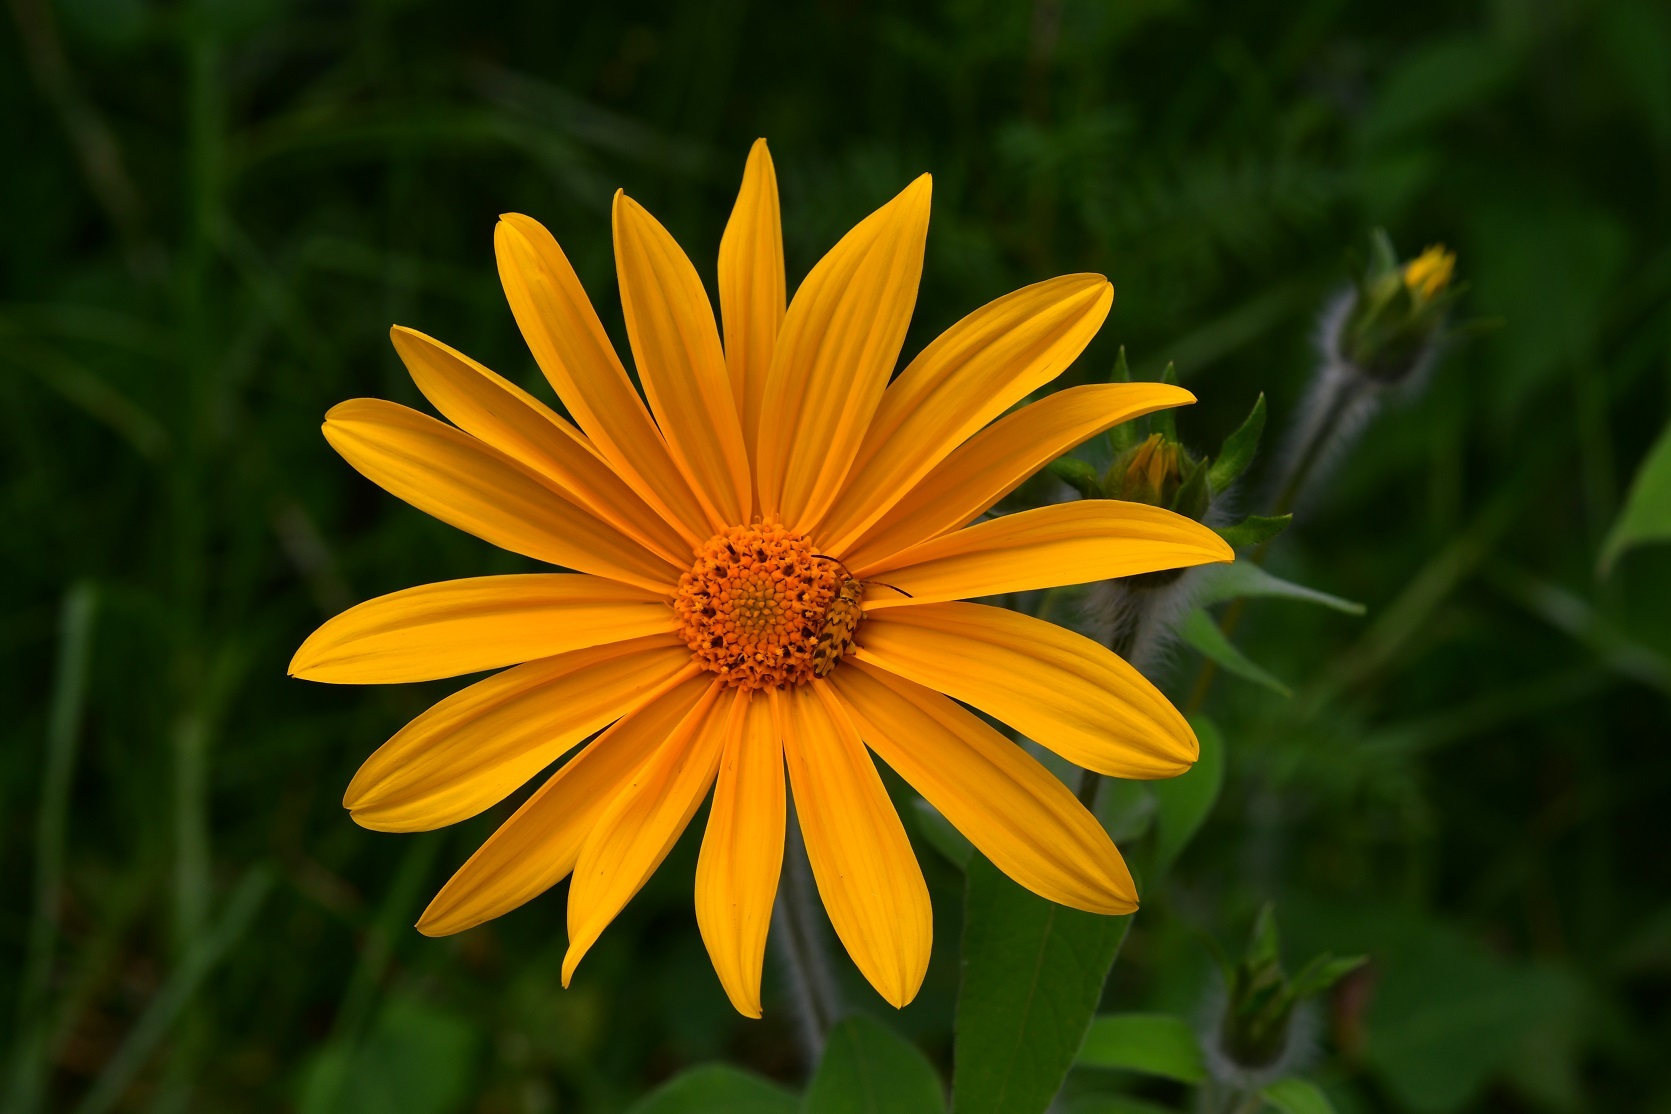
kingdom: Plantae
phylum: Tracheophyta
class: Magnoliopsida
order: Asterales
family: Asteraceae
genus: Tithonia
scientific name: Tithonia tubaeformis
